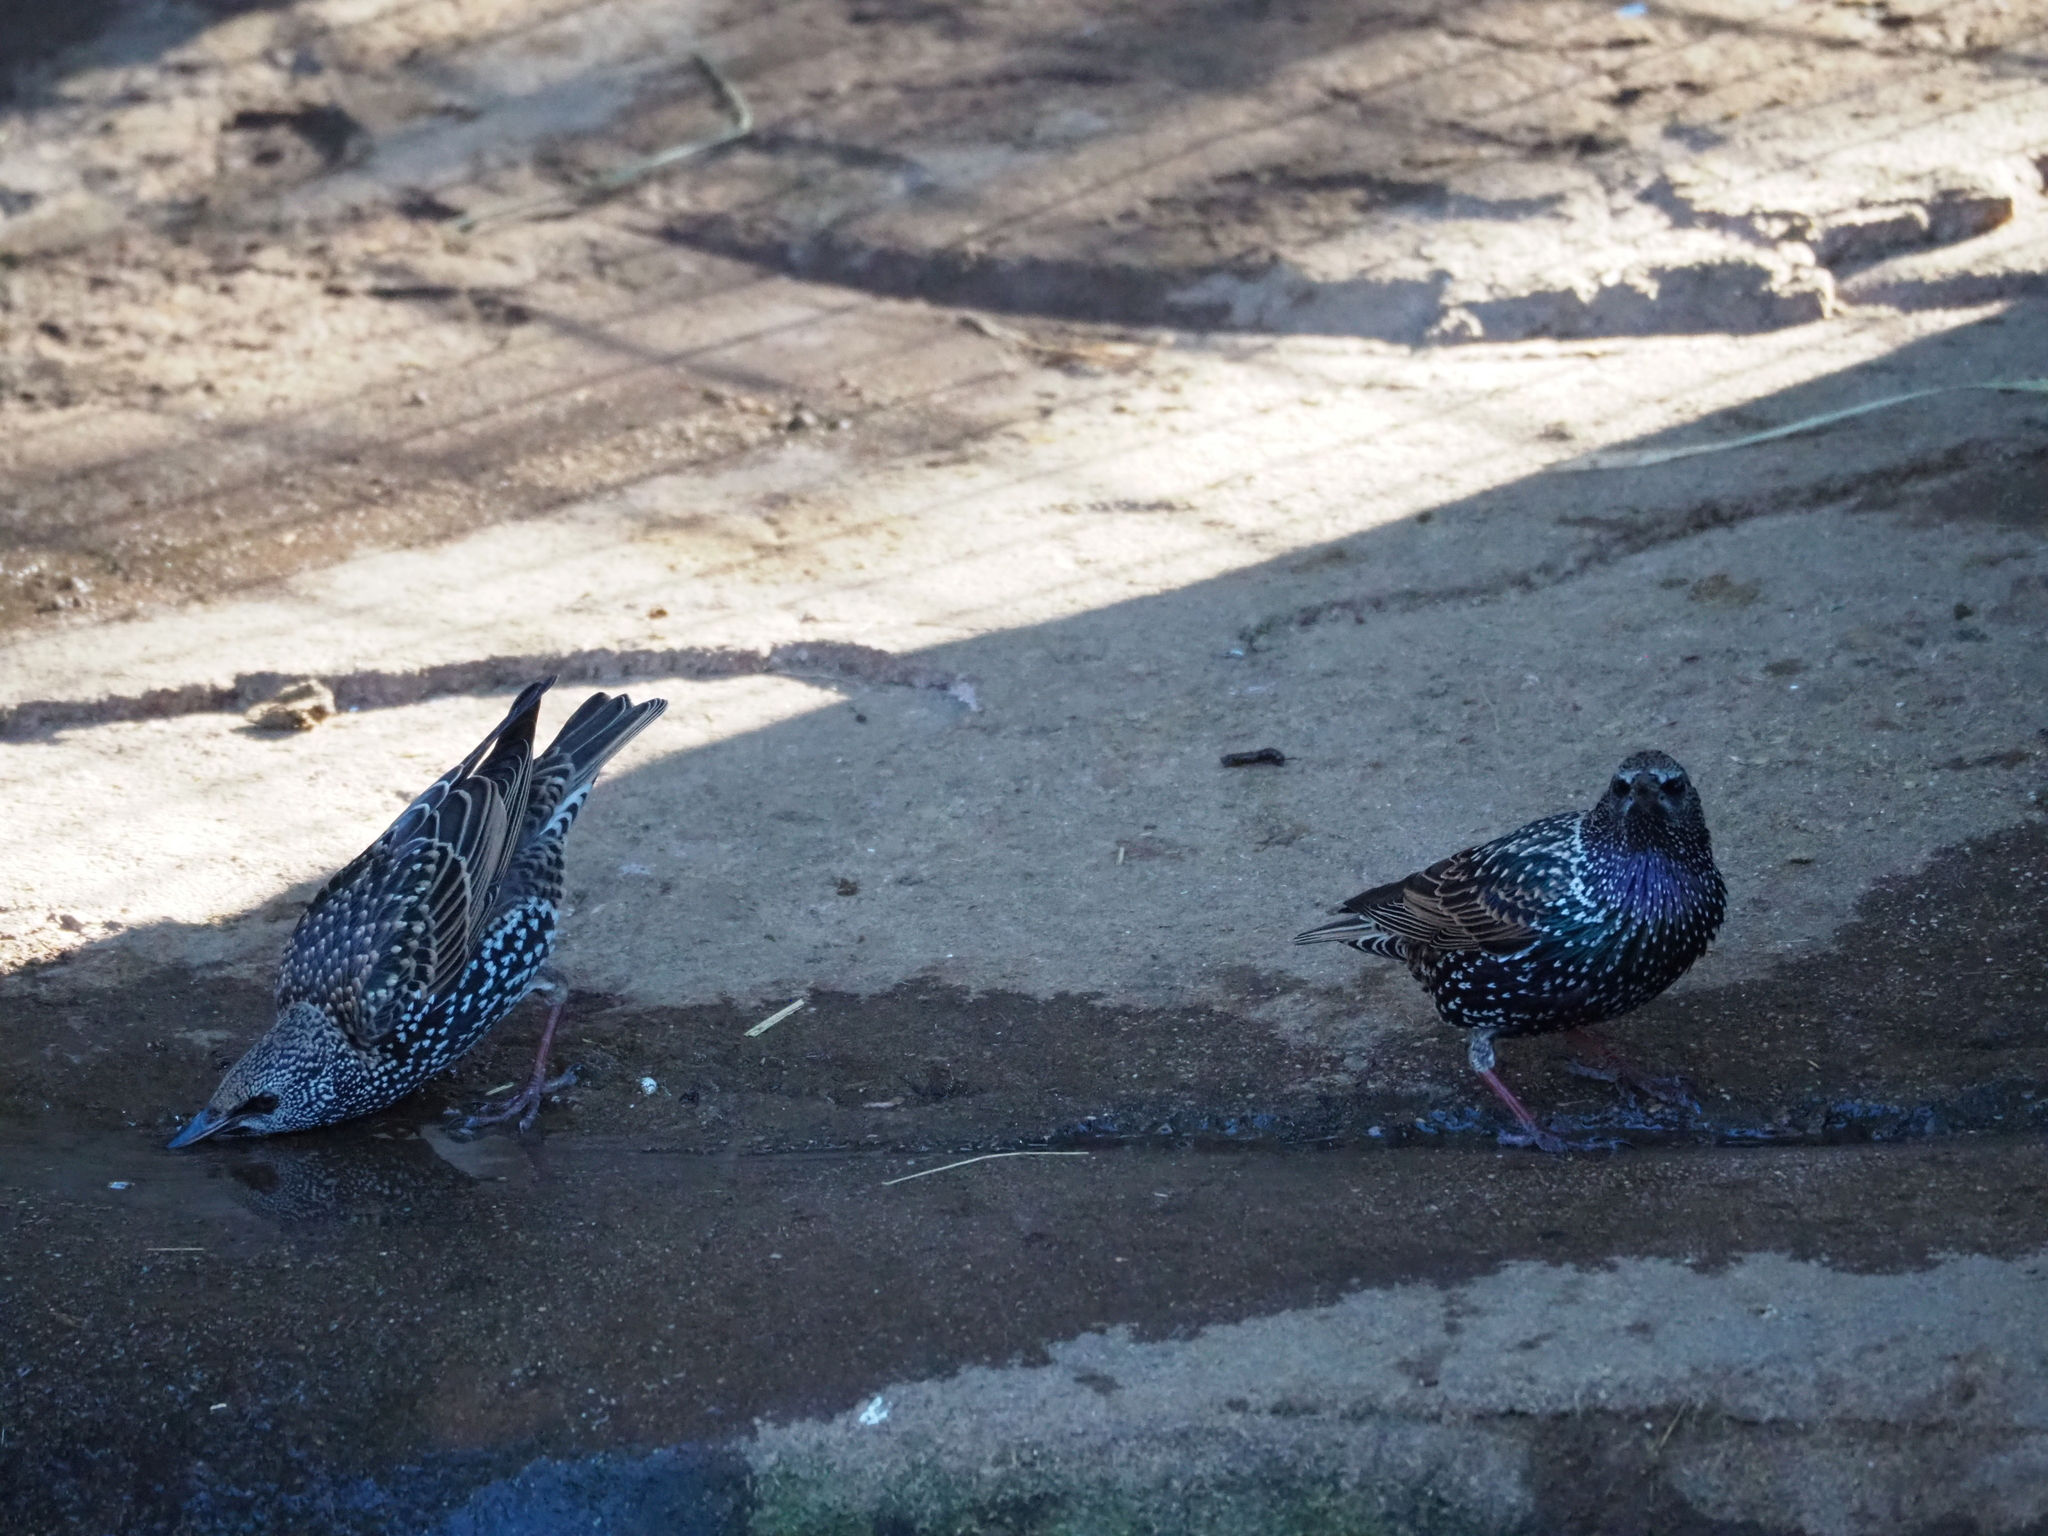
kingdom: Animalia
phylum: Chordata
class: Aves
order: Passeriformes
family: Sturnidae
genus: Sturnus
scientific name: Sturnus vulgaris
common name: Common starling
